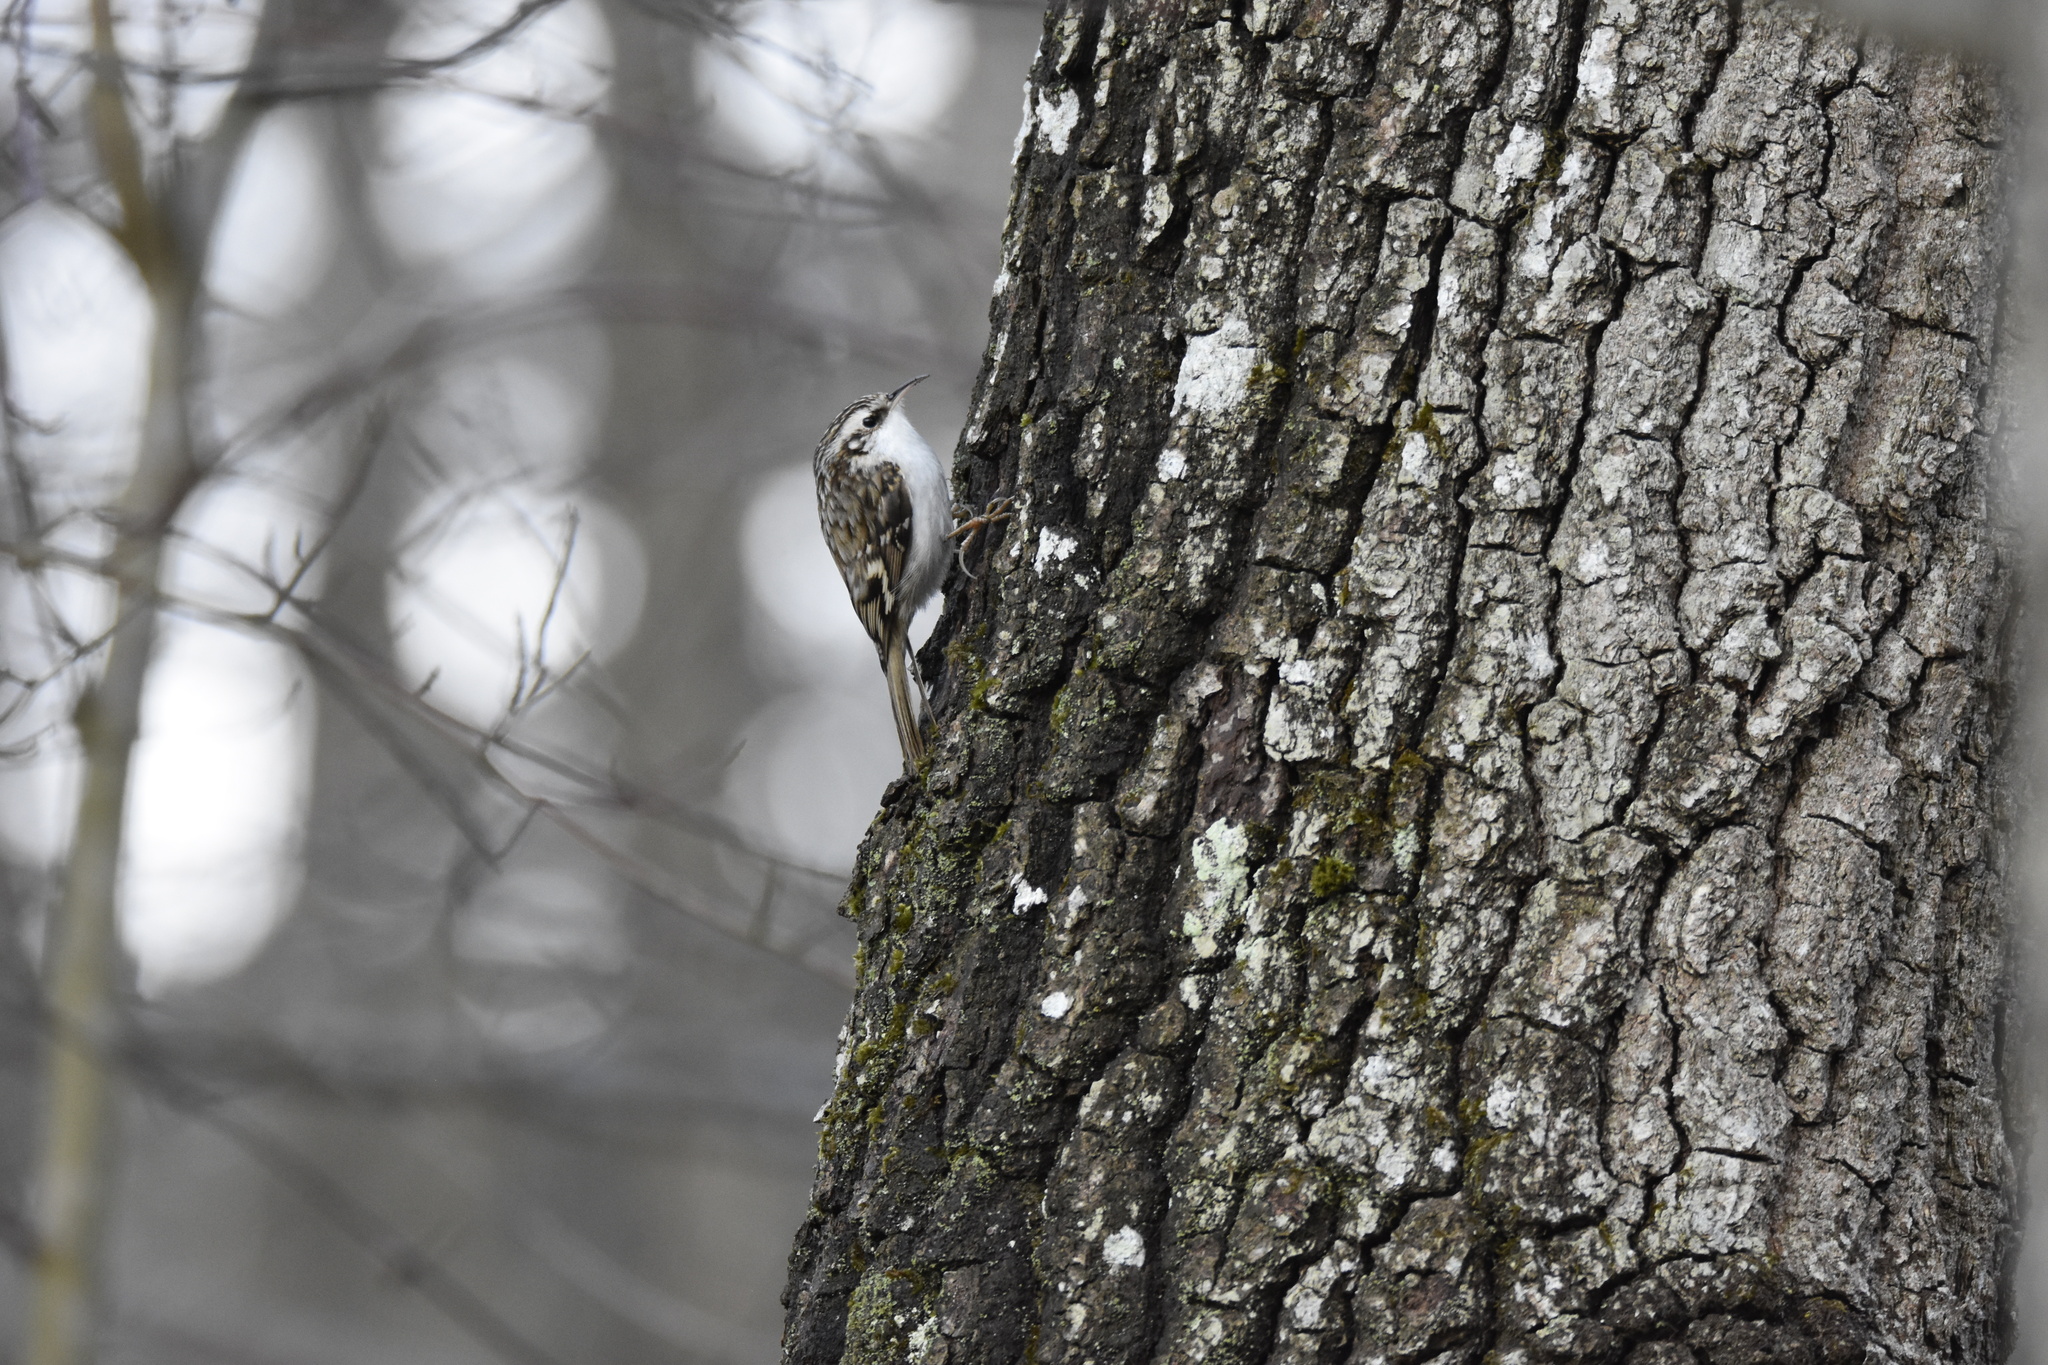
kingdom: Animalia
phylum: Chordata
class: Aves
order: Passeriformes
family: Certhiidae
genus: Certhia
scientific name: Certhia familiaris
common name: Eurasian treecreeper
